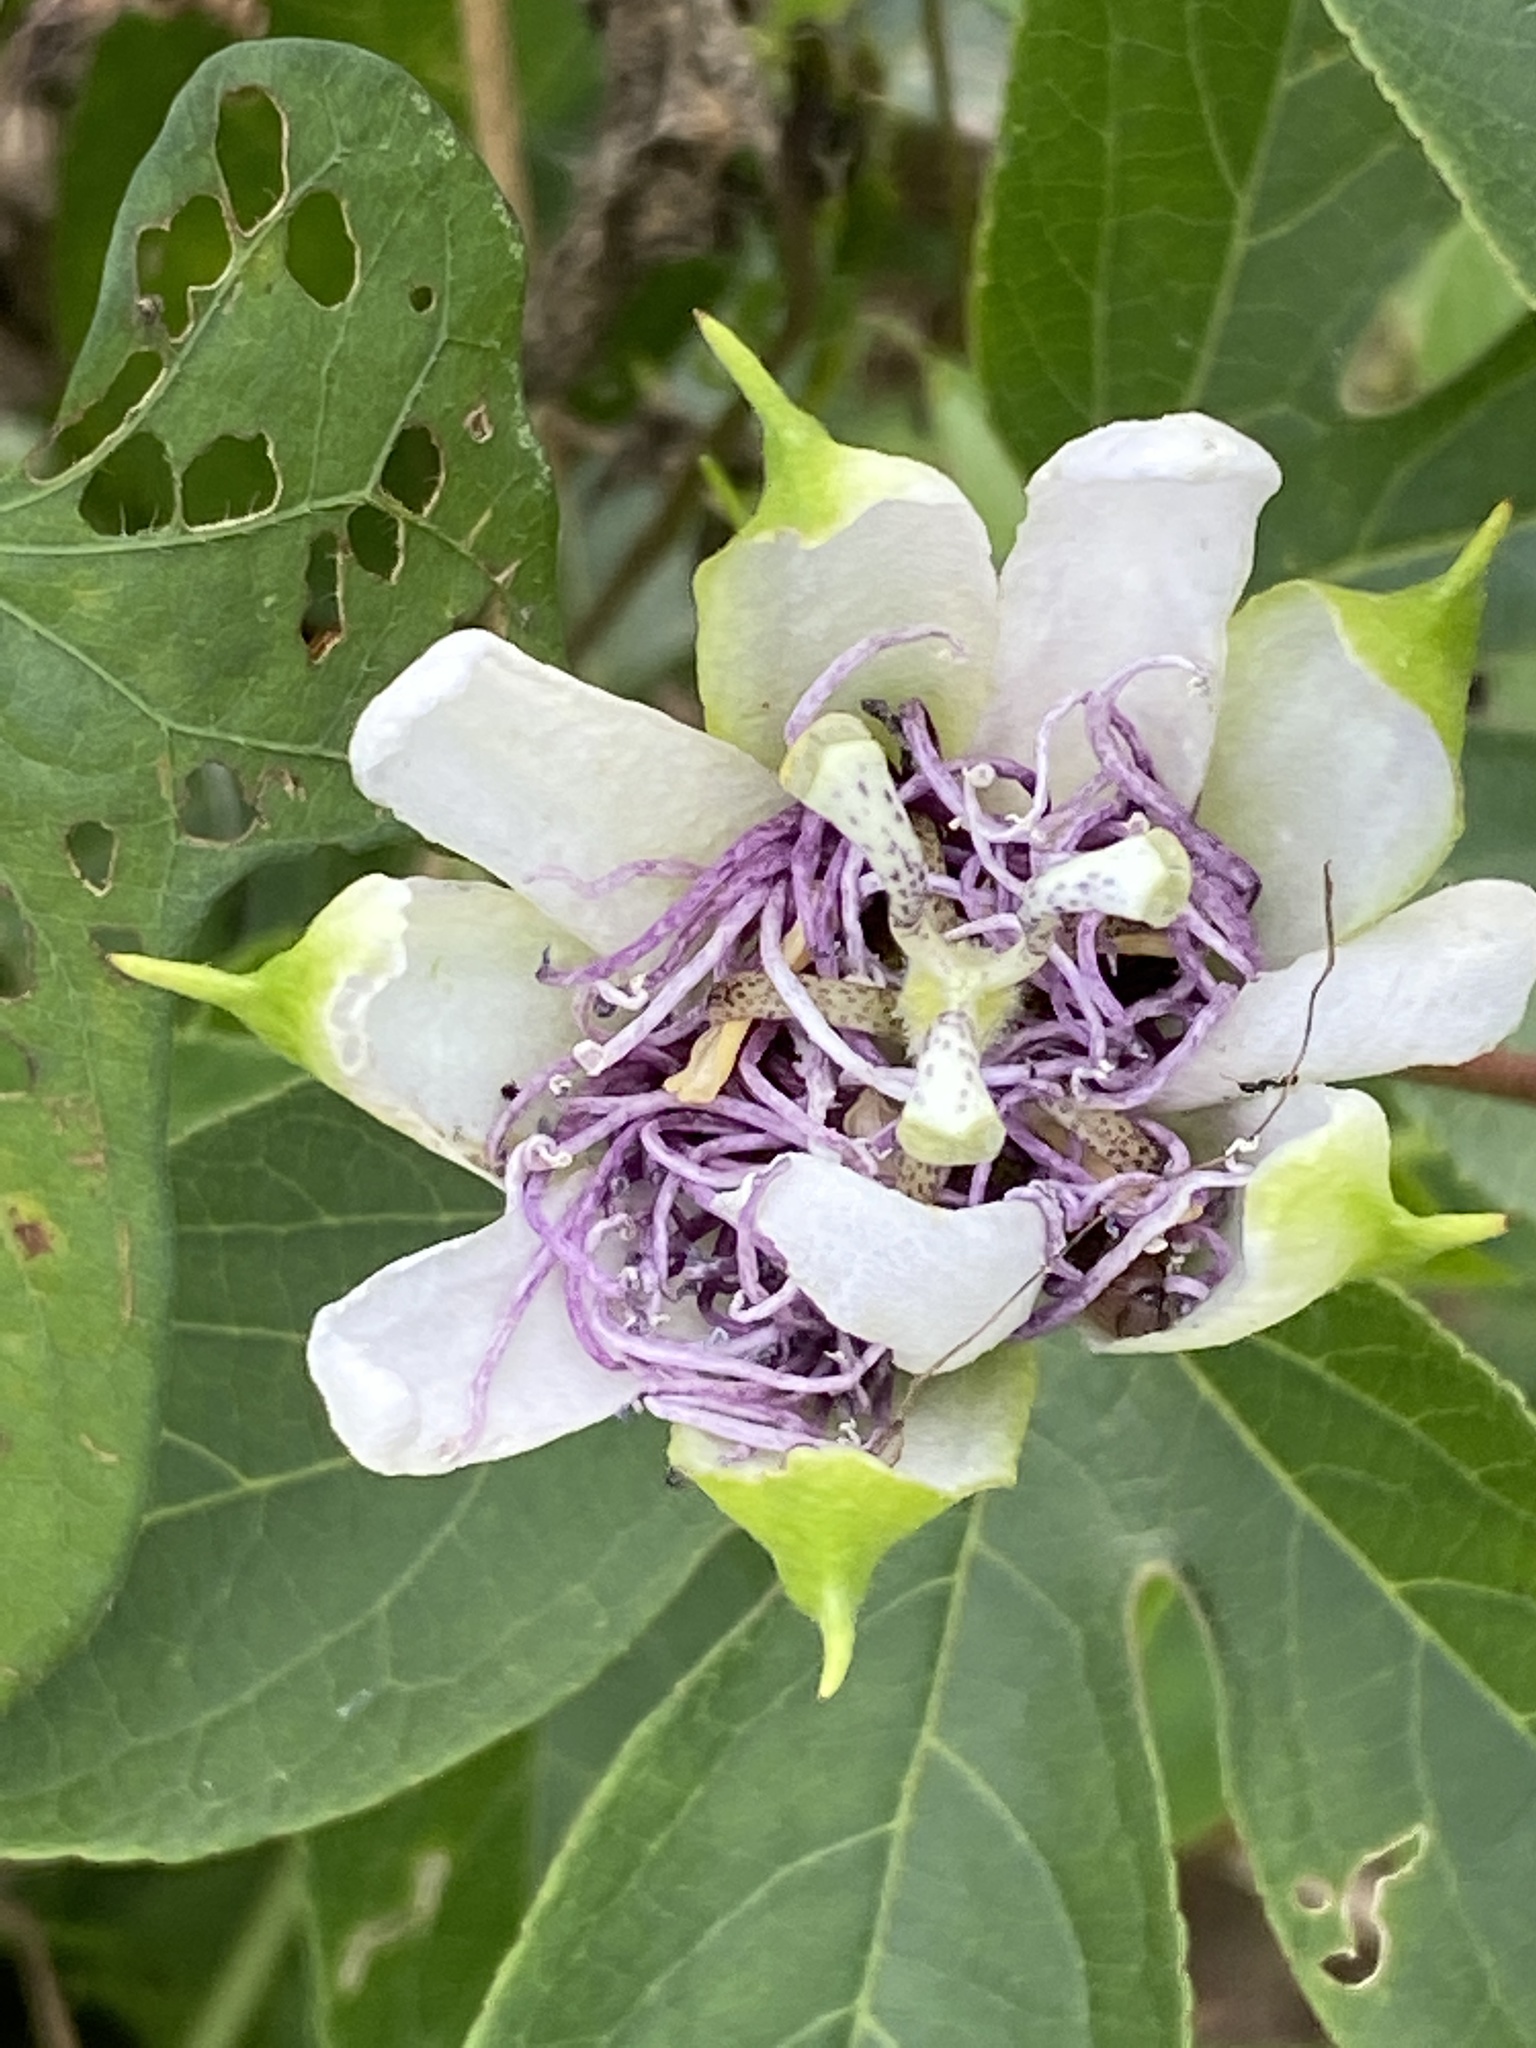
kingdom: Plantae
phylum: Tracheophyta
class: Magnoliopsida
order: Malpighiales
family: Passifloraceae
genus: Passiflora
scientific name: Passiflora incarnata
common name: Apricot-vine
